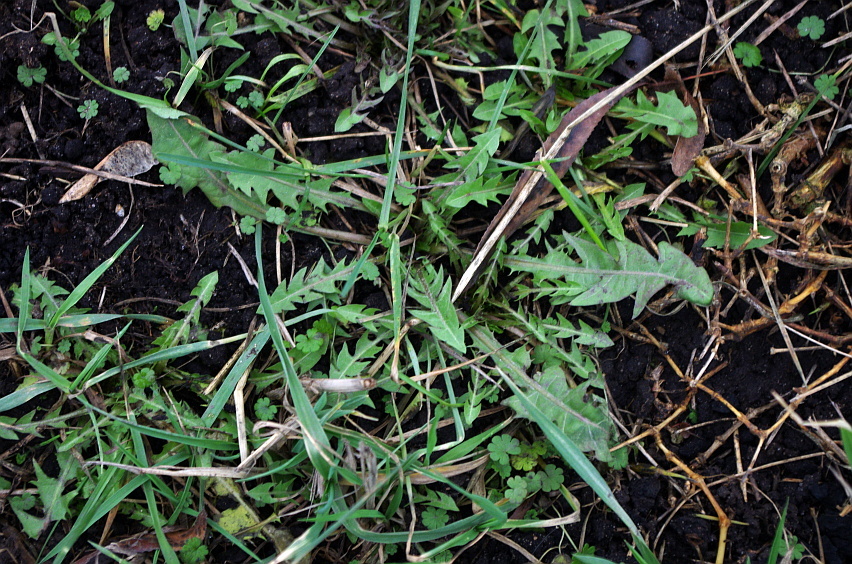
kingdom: Plantae
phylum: Tracheophyta
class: Magnoliopsida
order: Asterales
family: Asteraceae
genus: Taraxacum
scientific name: Taraxacum officinale
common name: Common dandelion
